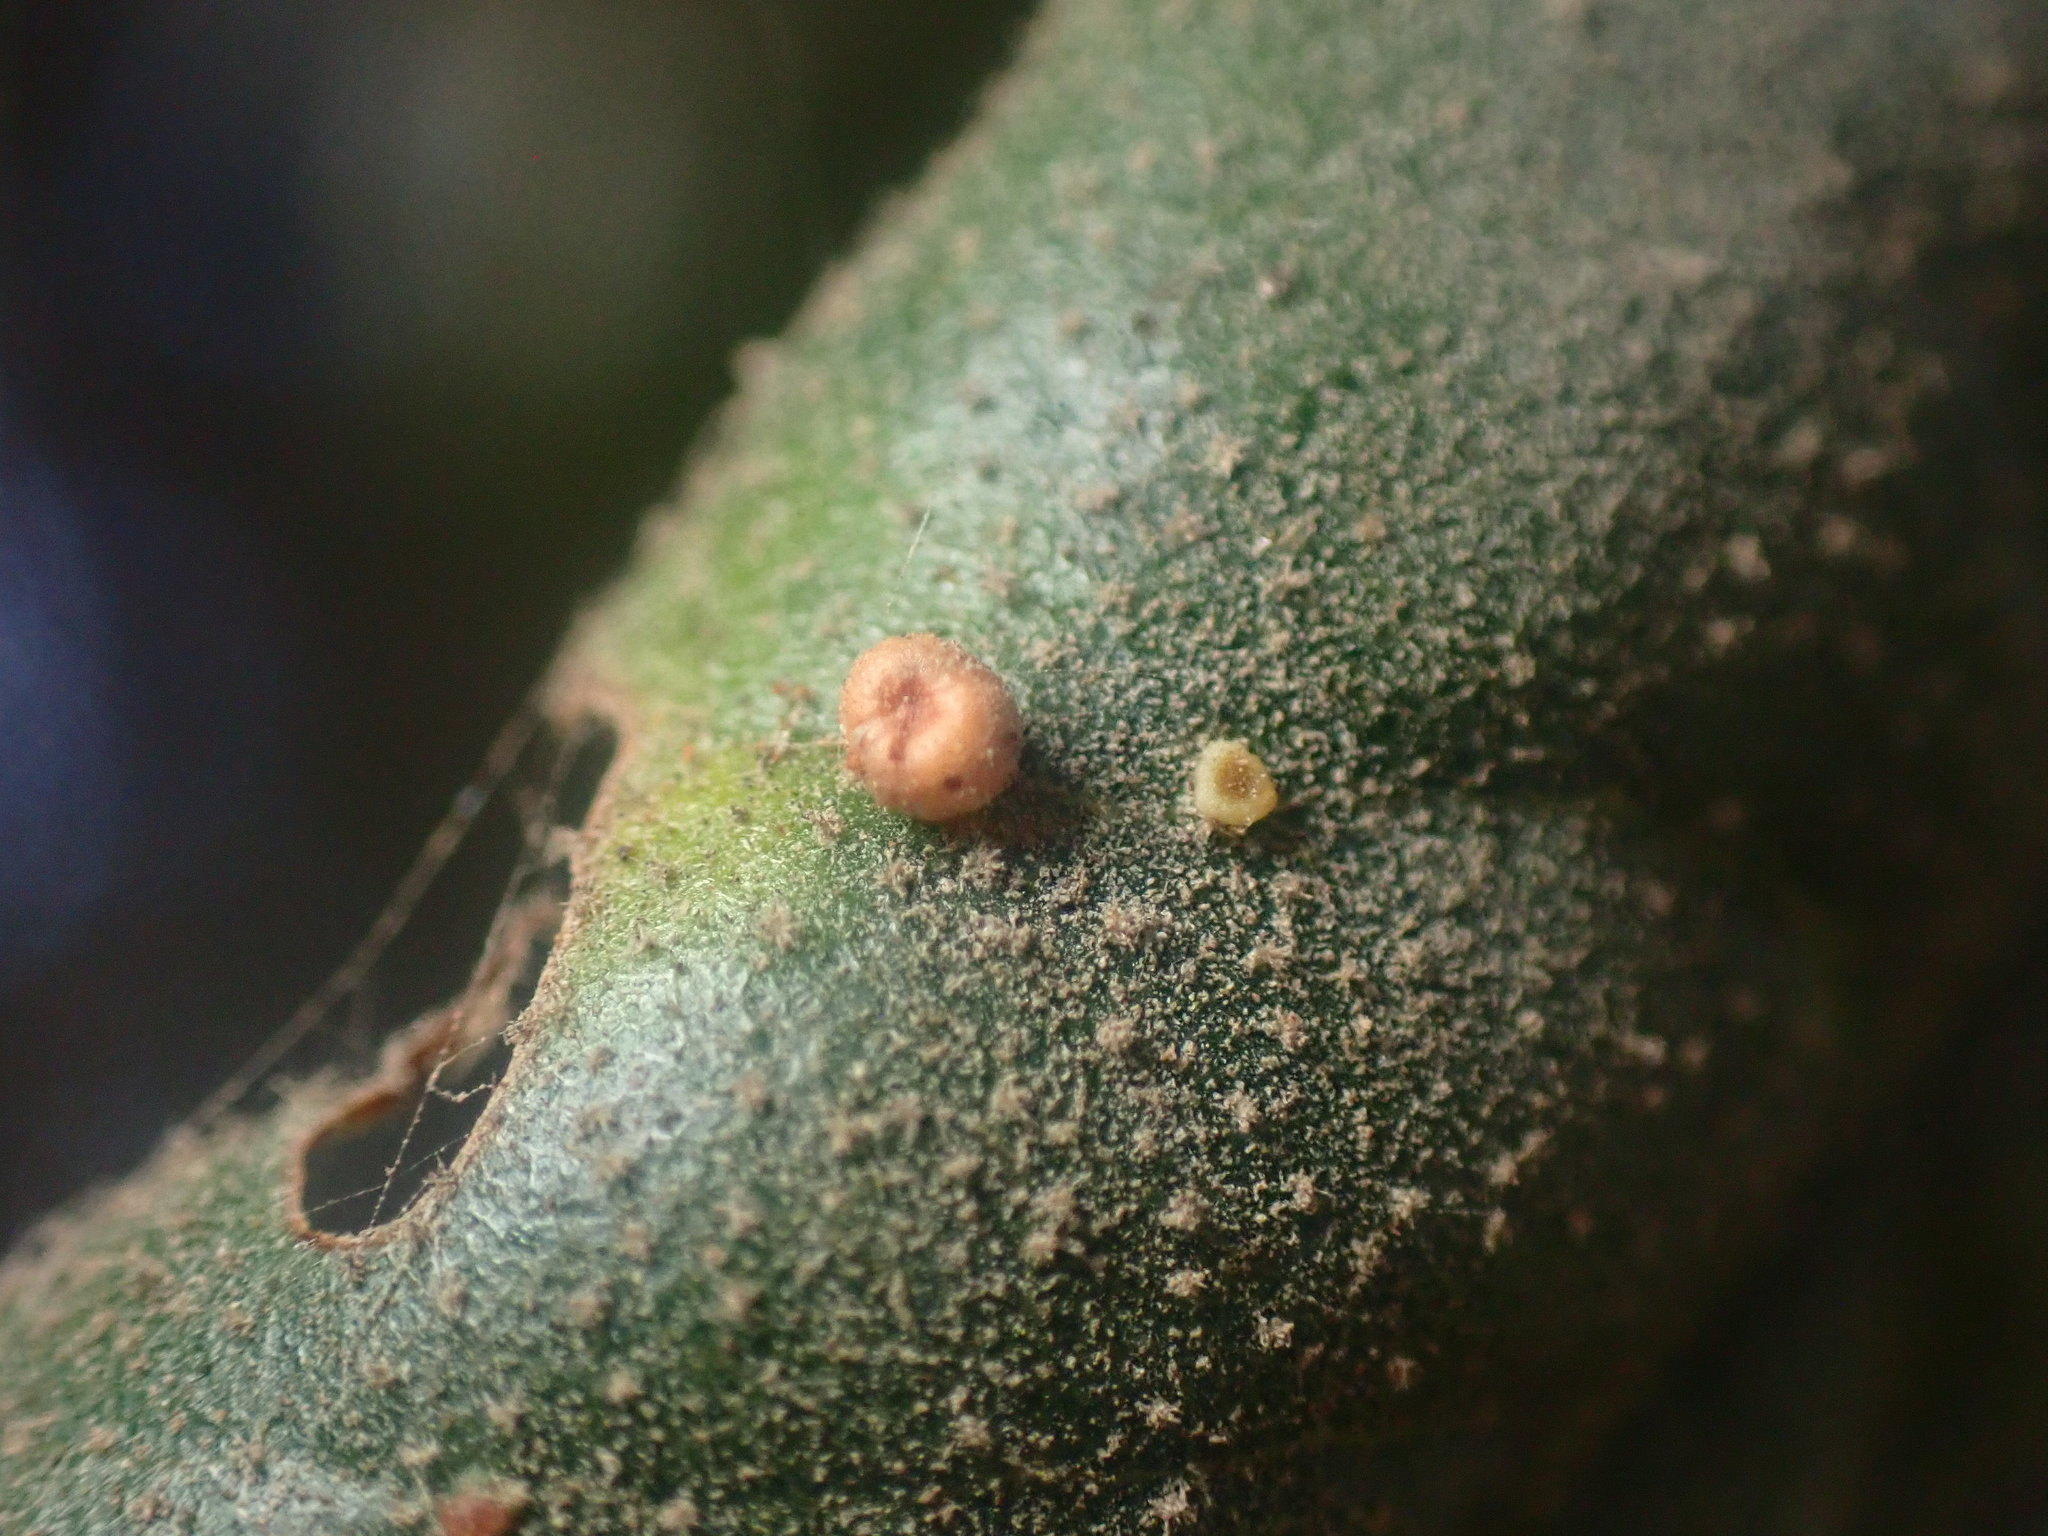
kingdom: Animalia
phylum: Arthropoda
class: Insecta
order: Hymenoptera
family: Cynipidae
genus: Dryocosmus
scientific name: Dryocosmus
